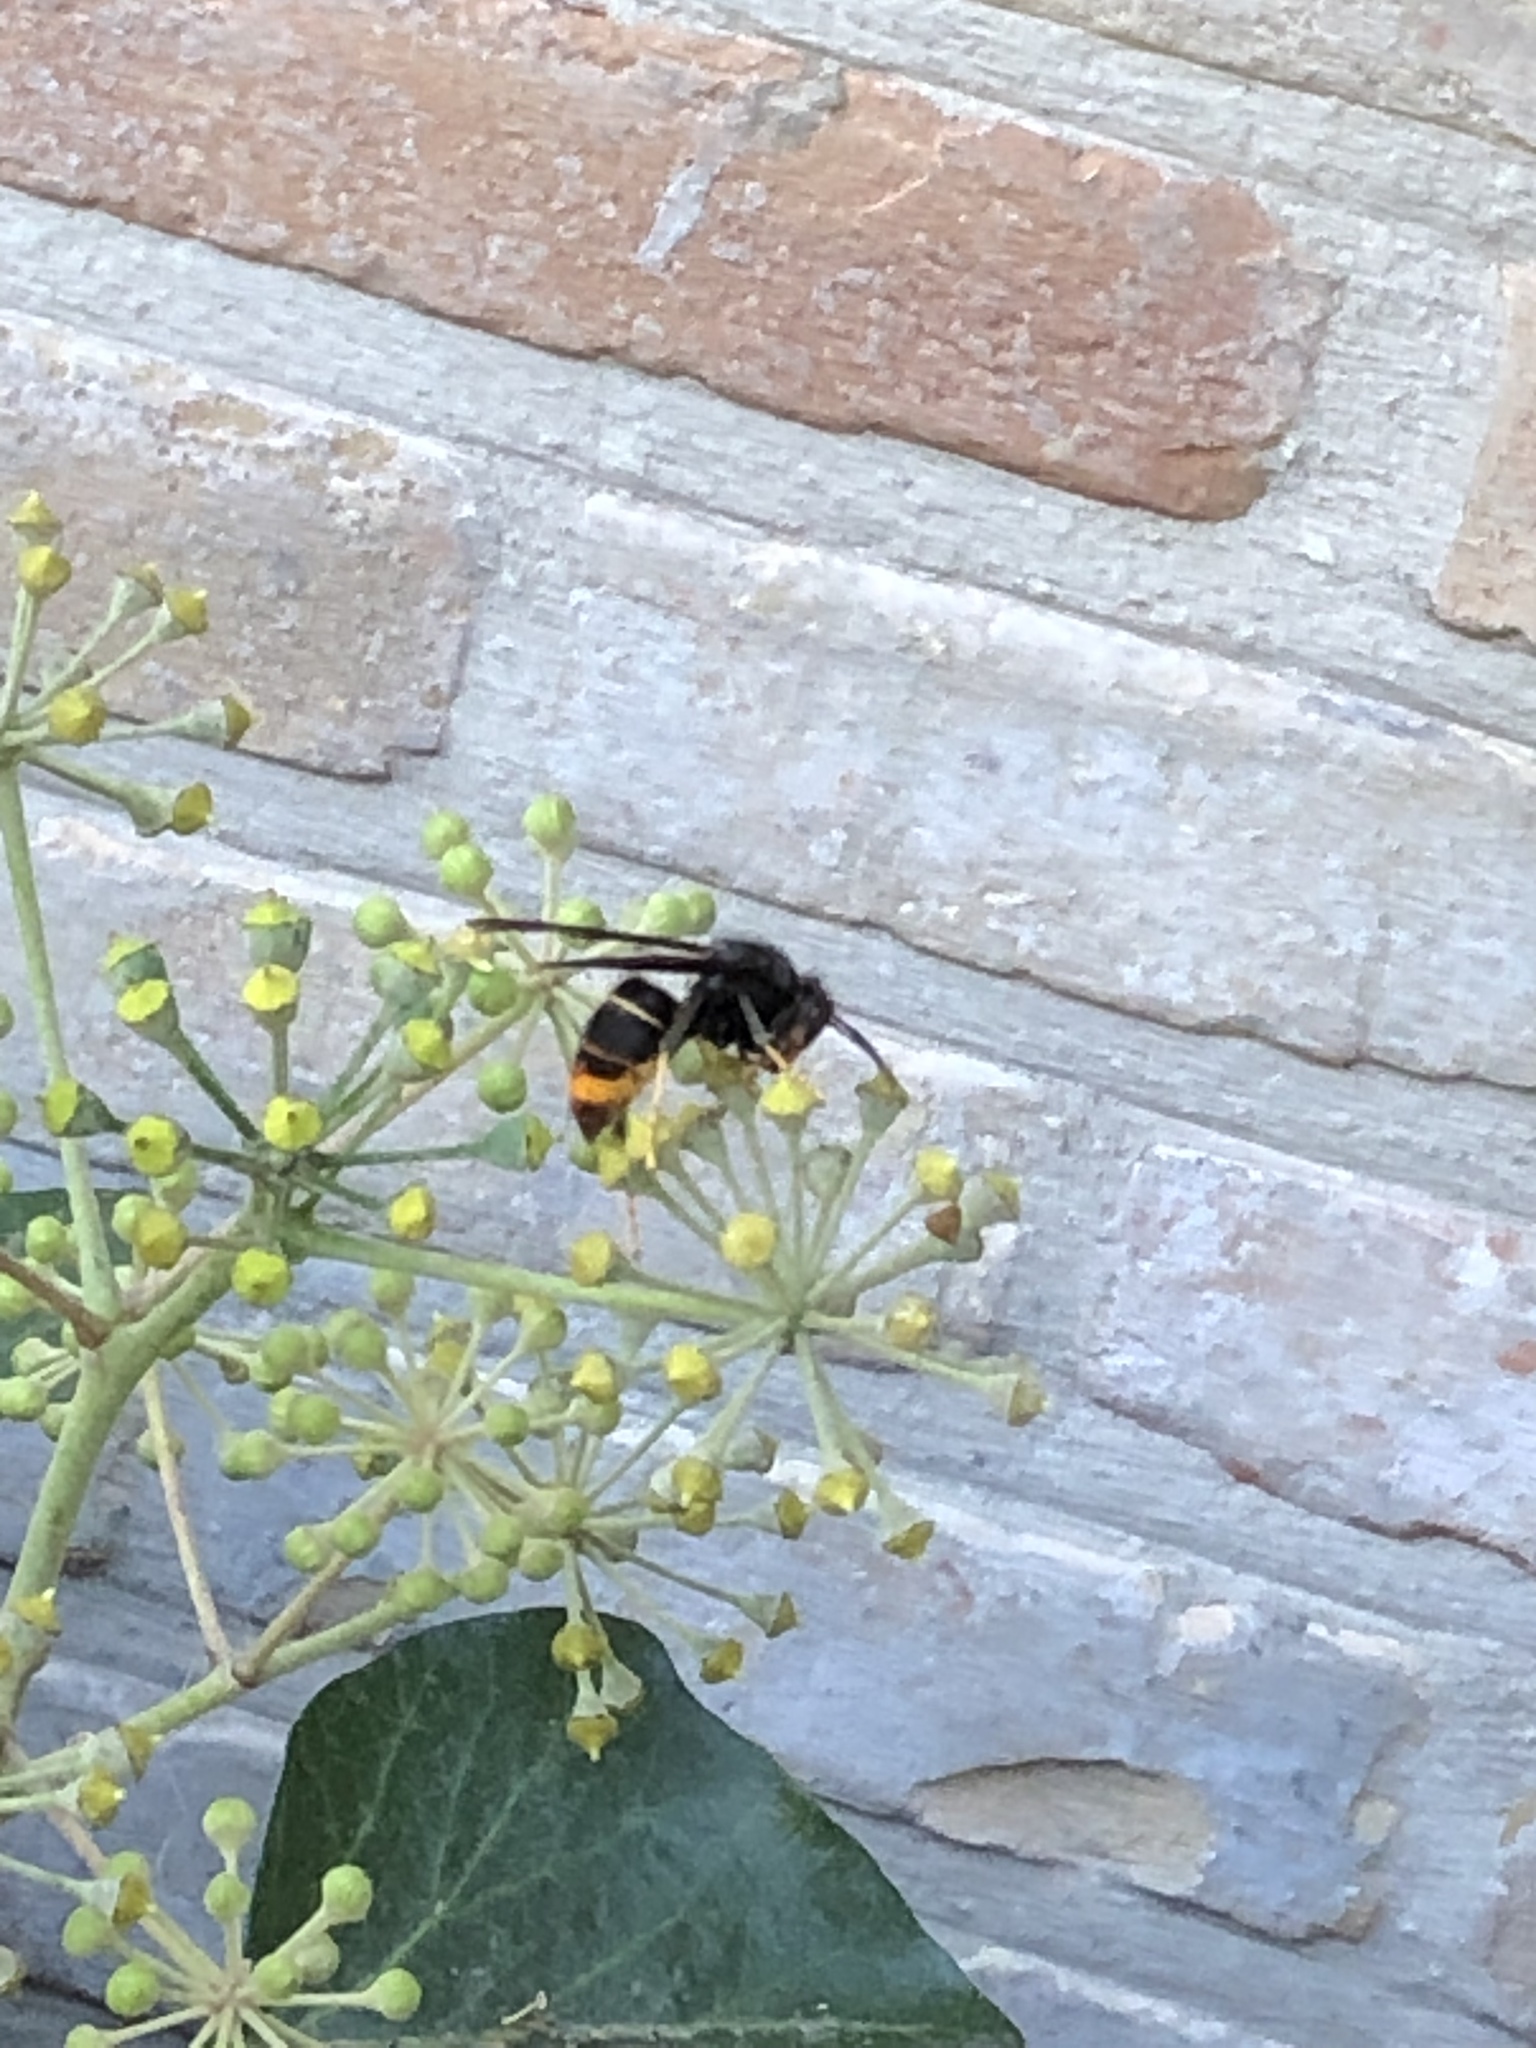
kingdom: Animalia
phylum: Arthropoda
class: Insecta
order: Hymenoptera
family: Vespidae
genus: Vespa
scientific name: Vespa velutina
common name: Asian hornet
